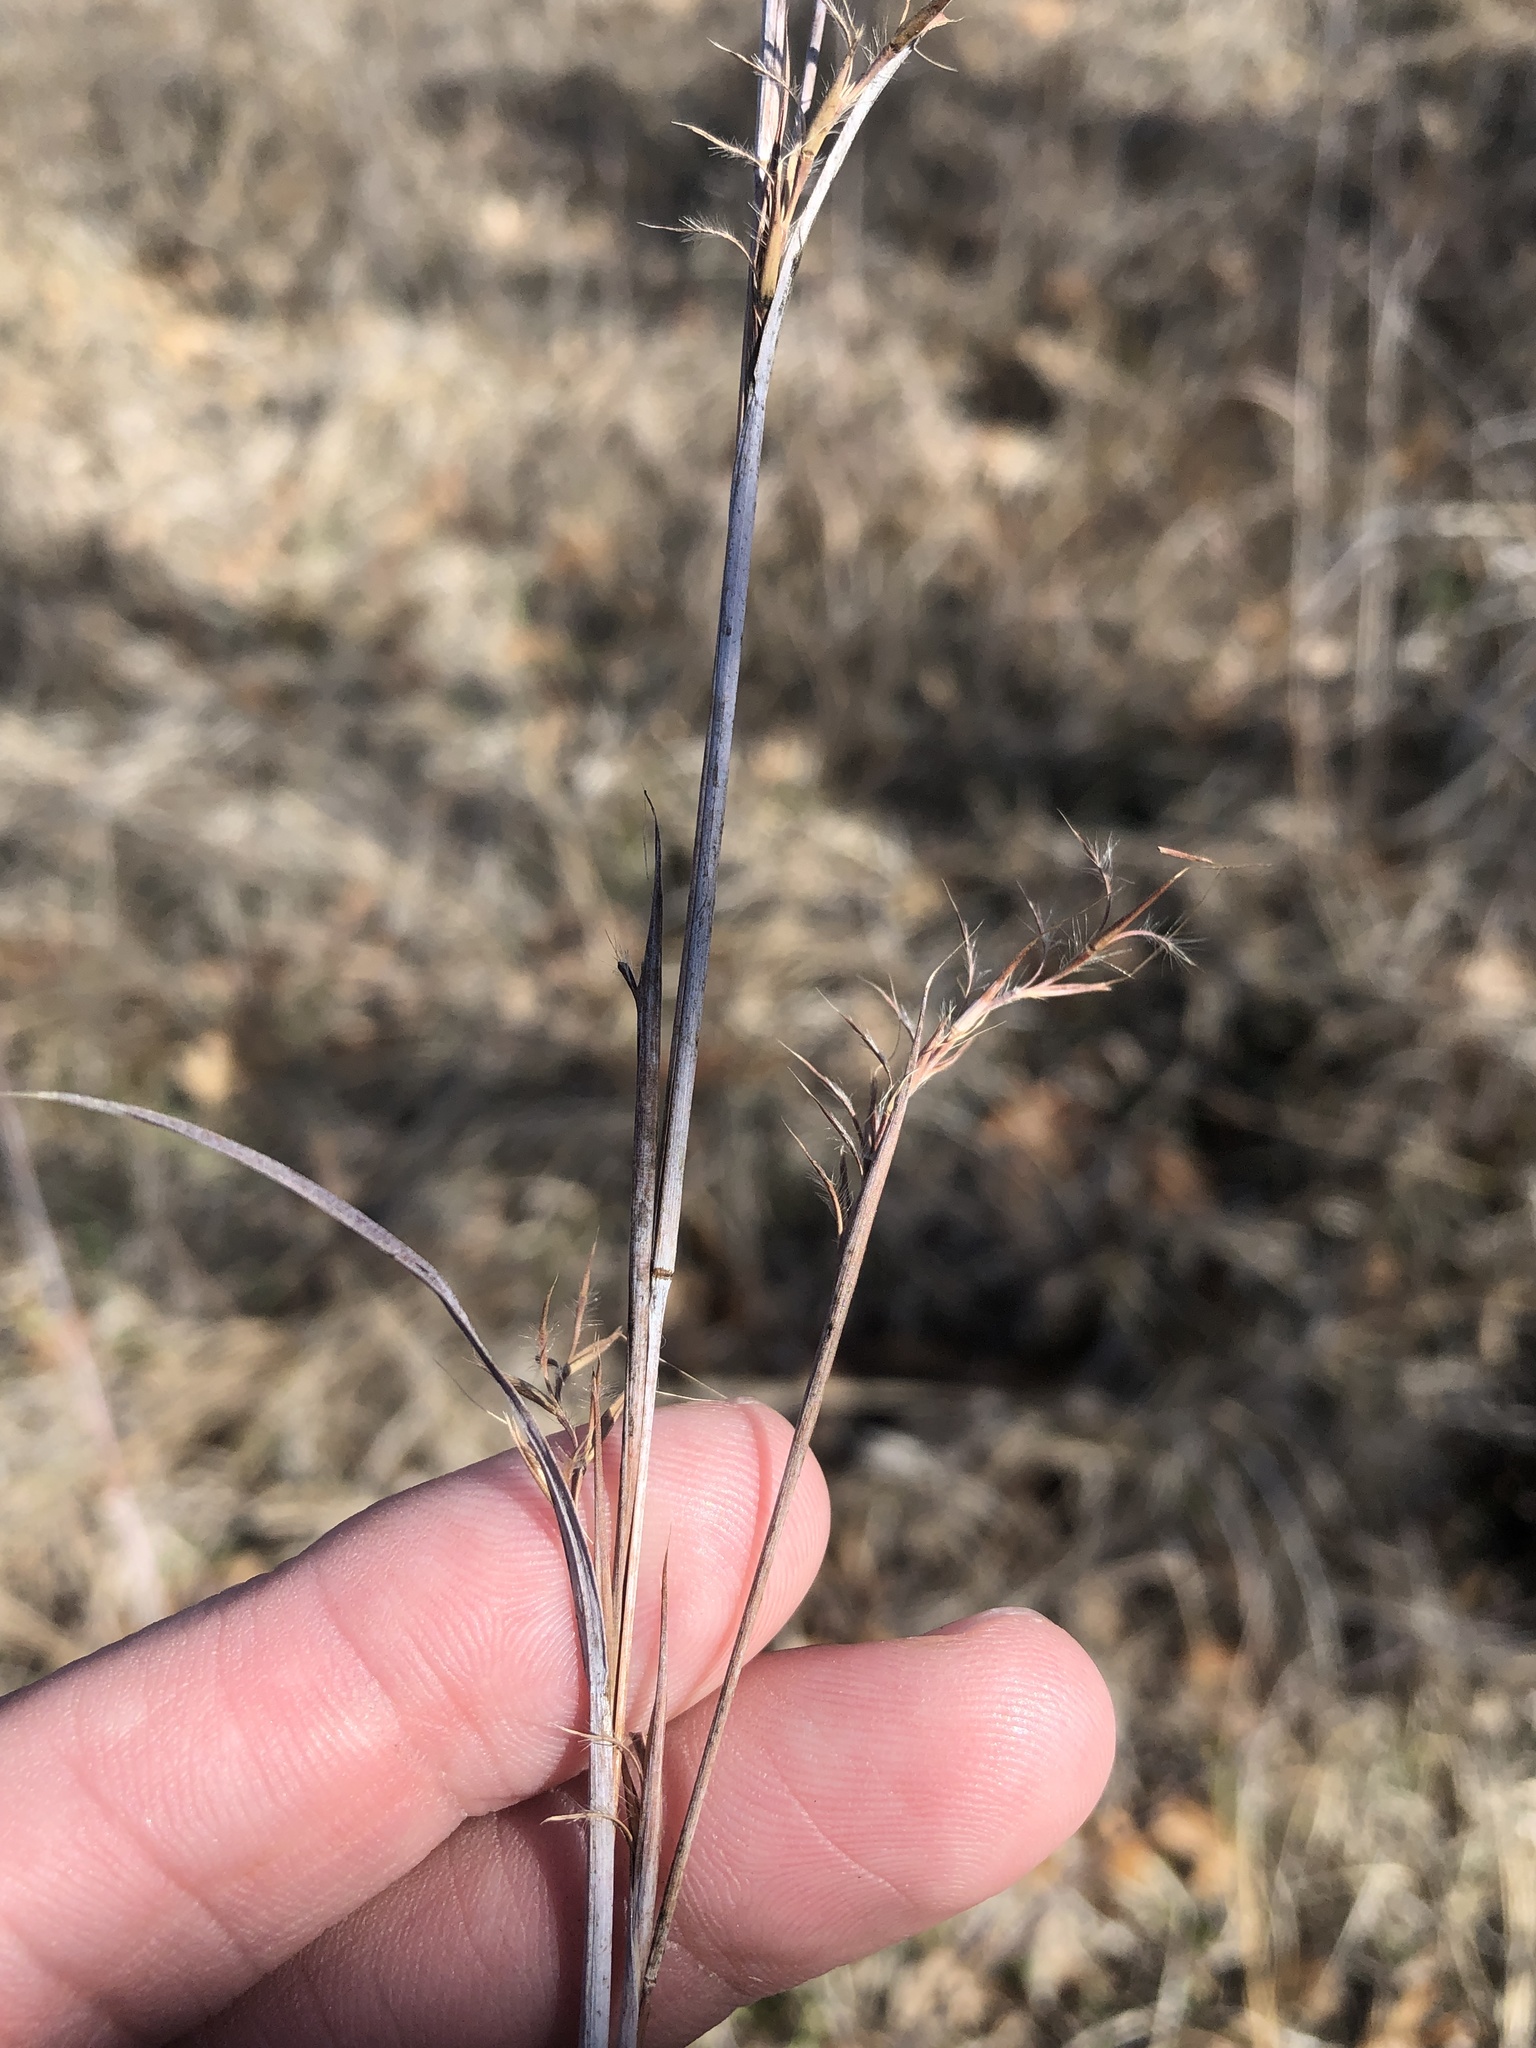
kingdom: Plantae
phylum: Tracheophyta
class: Liliopsida
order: Poales
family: Poaceae
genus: Schizachyrium
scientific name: Schizachyrium scoparium
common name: Little bluestem
